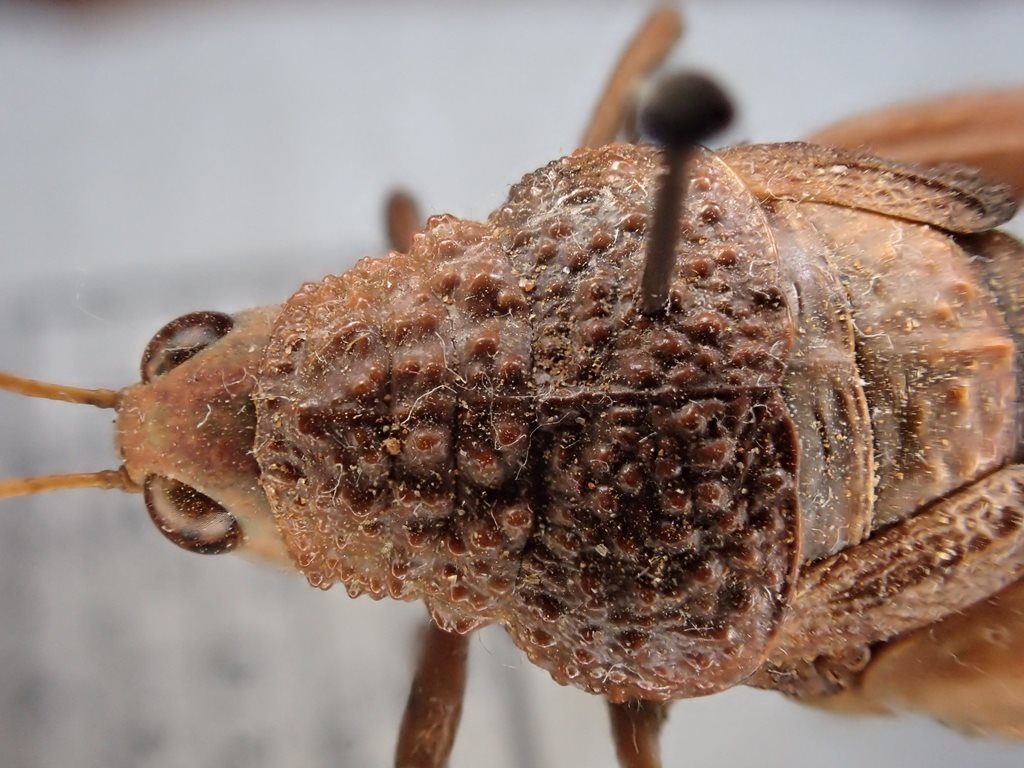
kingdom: Animalia
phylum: Arthropoda
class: Insecta
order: Orthoptera
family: Acrididae
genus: Testudinellia
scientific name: Testudinellia unicolor
